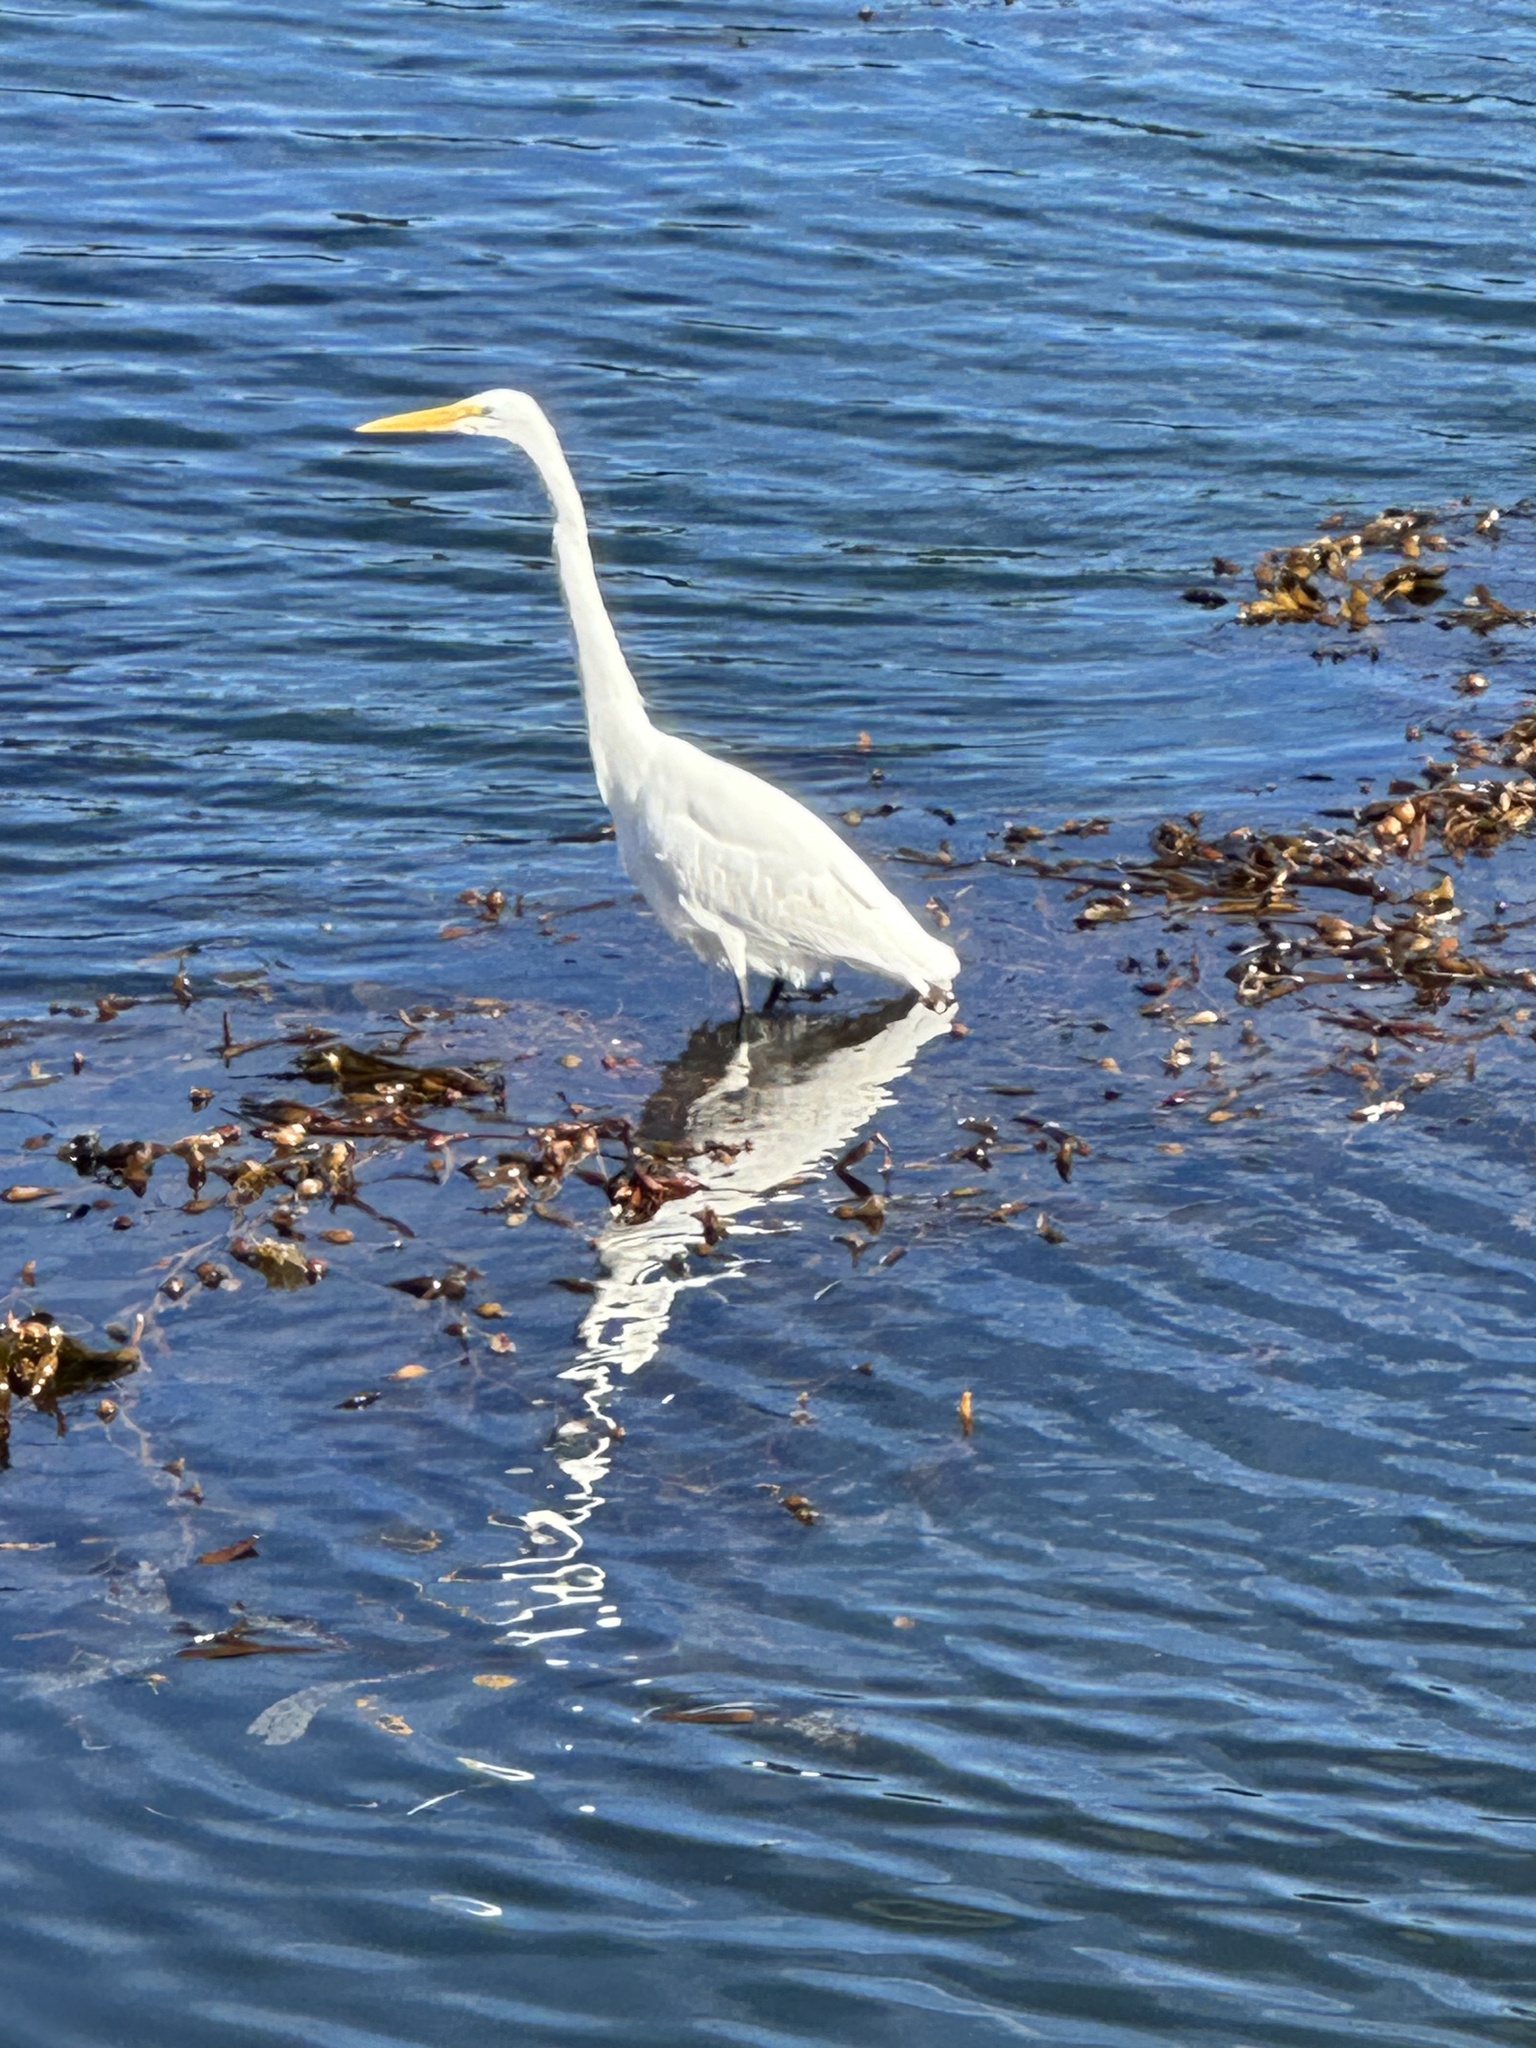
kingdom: Animalia
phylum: Chordata
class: Aves
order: Pelecaniformes
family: Ardeidae
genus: Ardea
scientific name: Ardea alba
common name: Great egret
